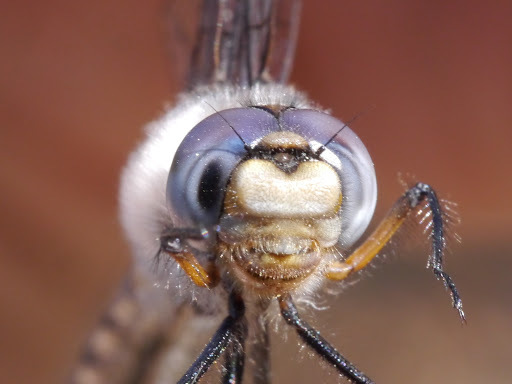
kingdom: Animalia
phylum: Arthropoda
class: Insecta
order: Odonata
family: Corduliidae
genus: Epitheca
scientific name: Epitheca spinosa
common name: Robust baskettail
